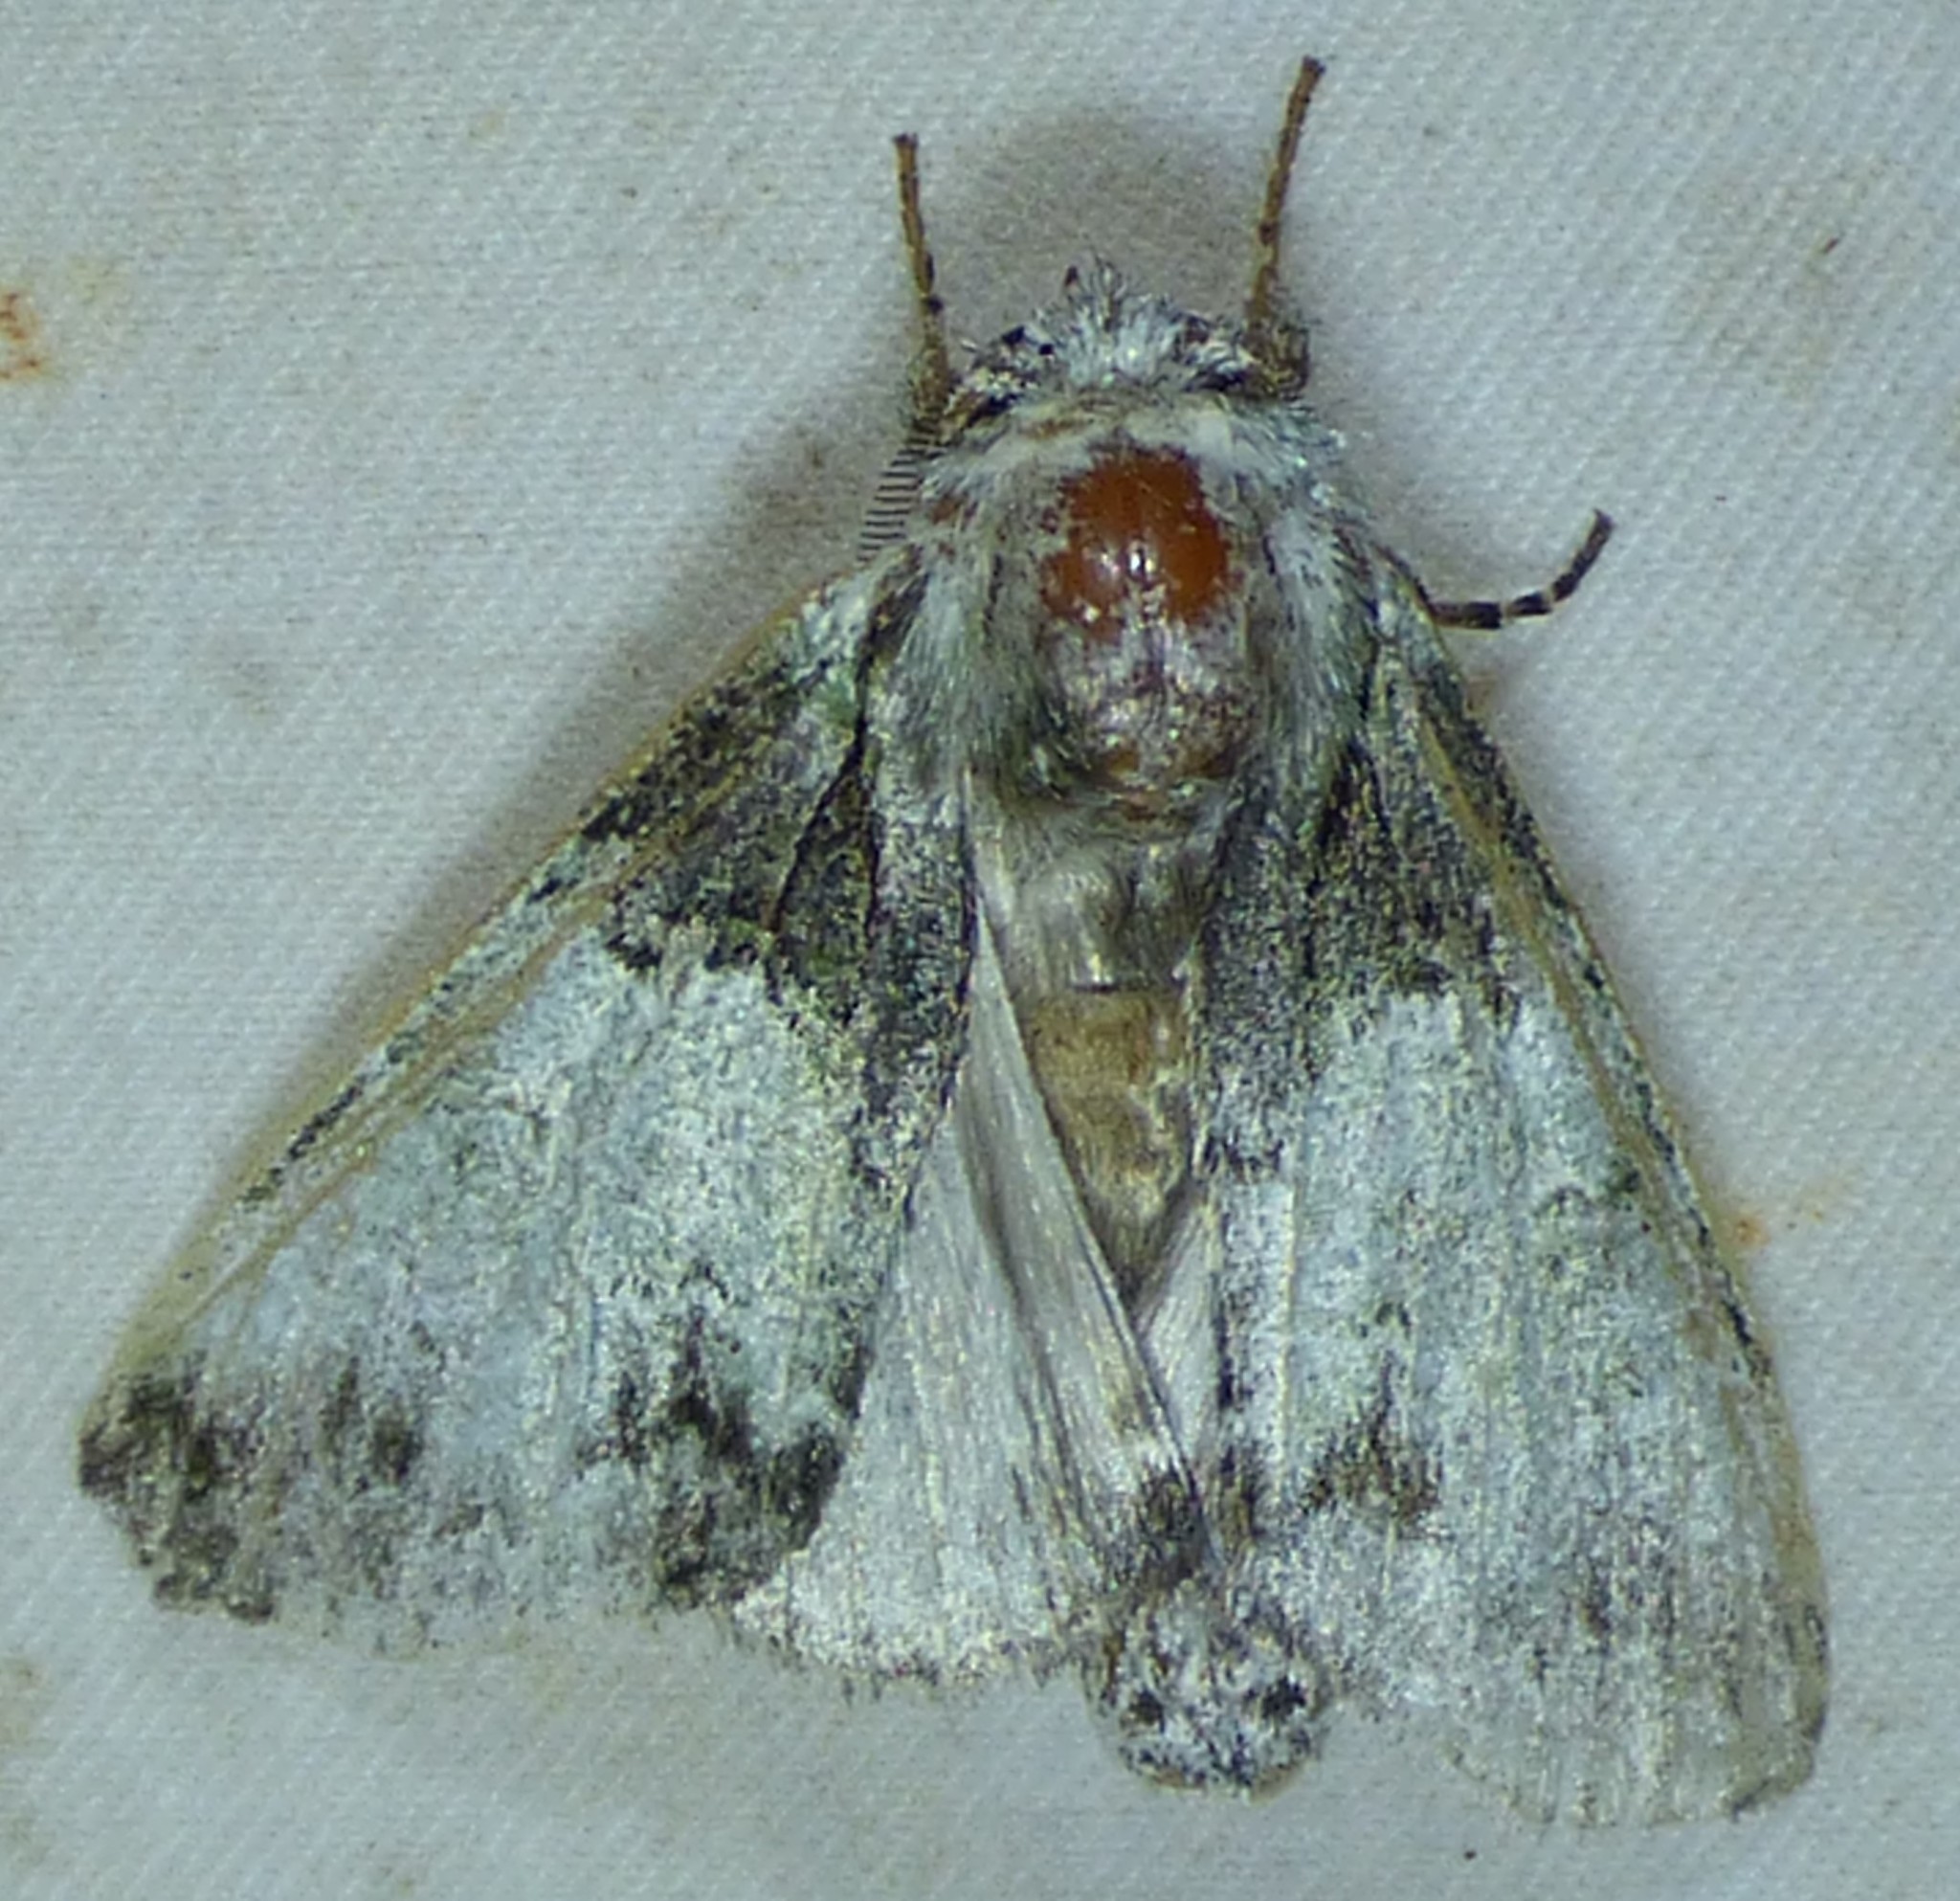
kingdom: Animalia
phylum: Arthropoda
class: Insecta
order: Lepidoptera
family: Notodontidae
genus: Macrurocampa
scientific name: Macrurocampa marthesia
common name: Mottled prominent
